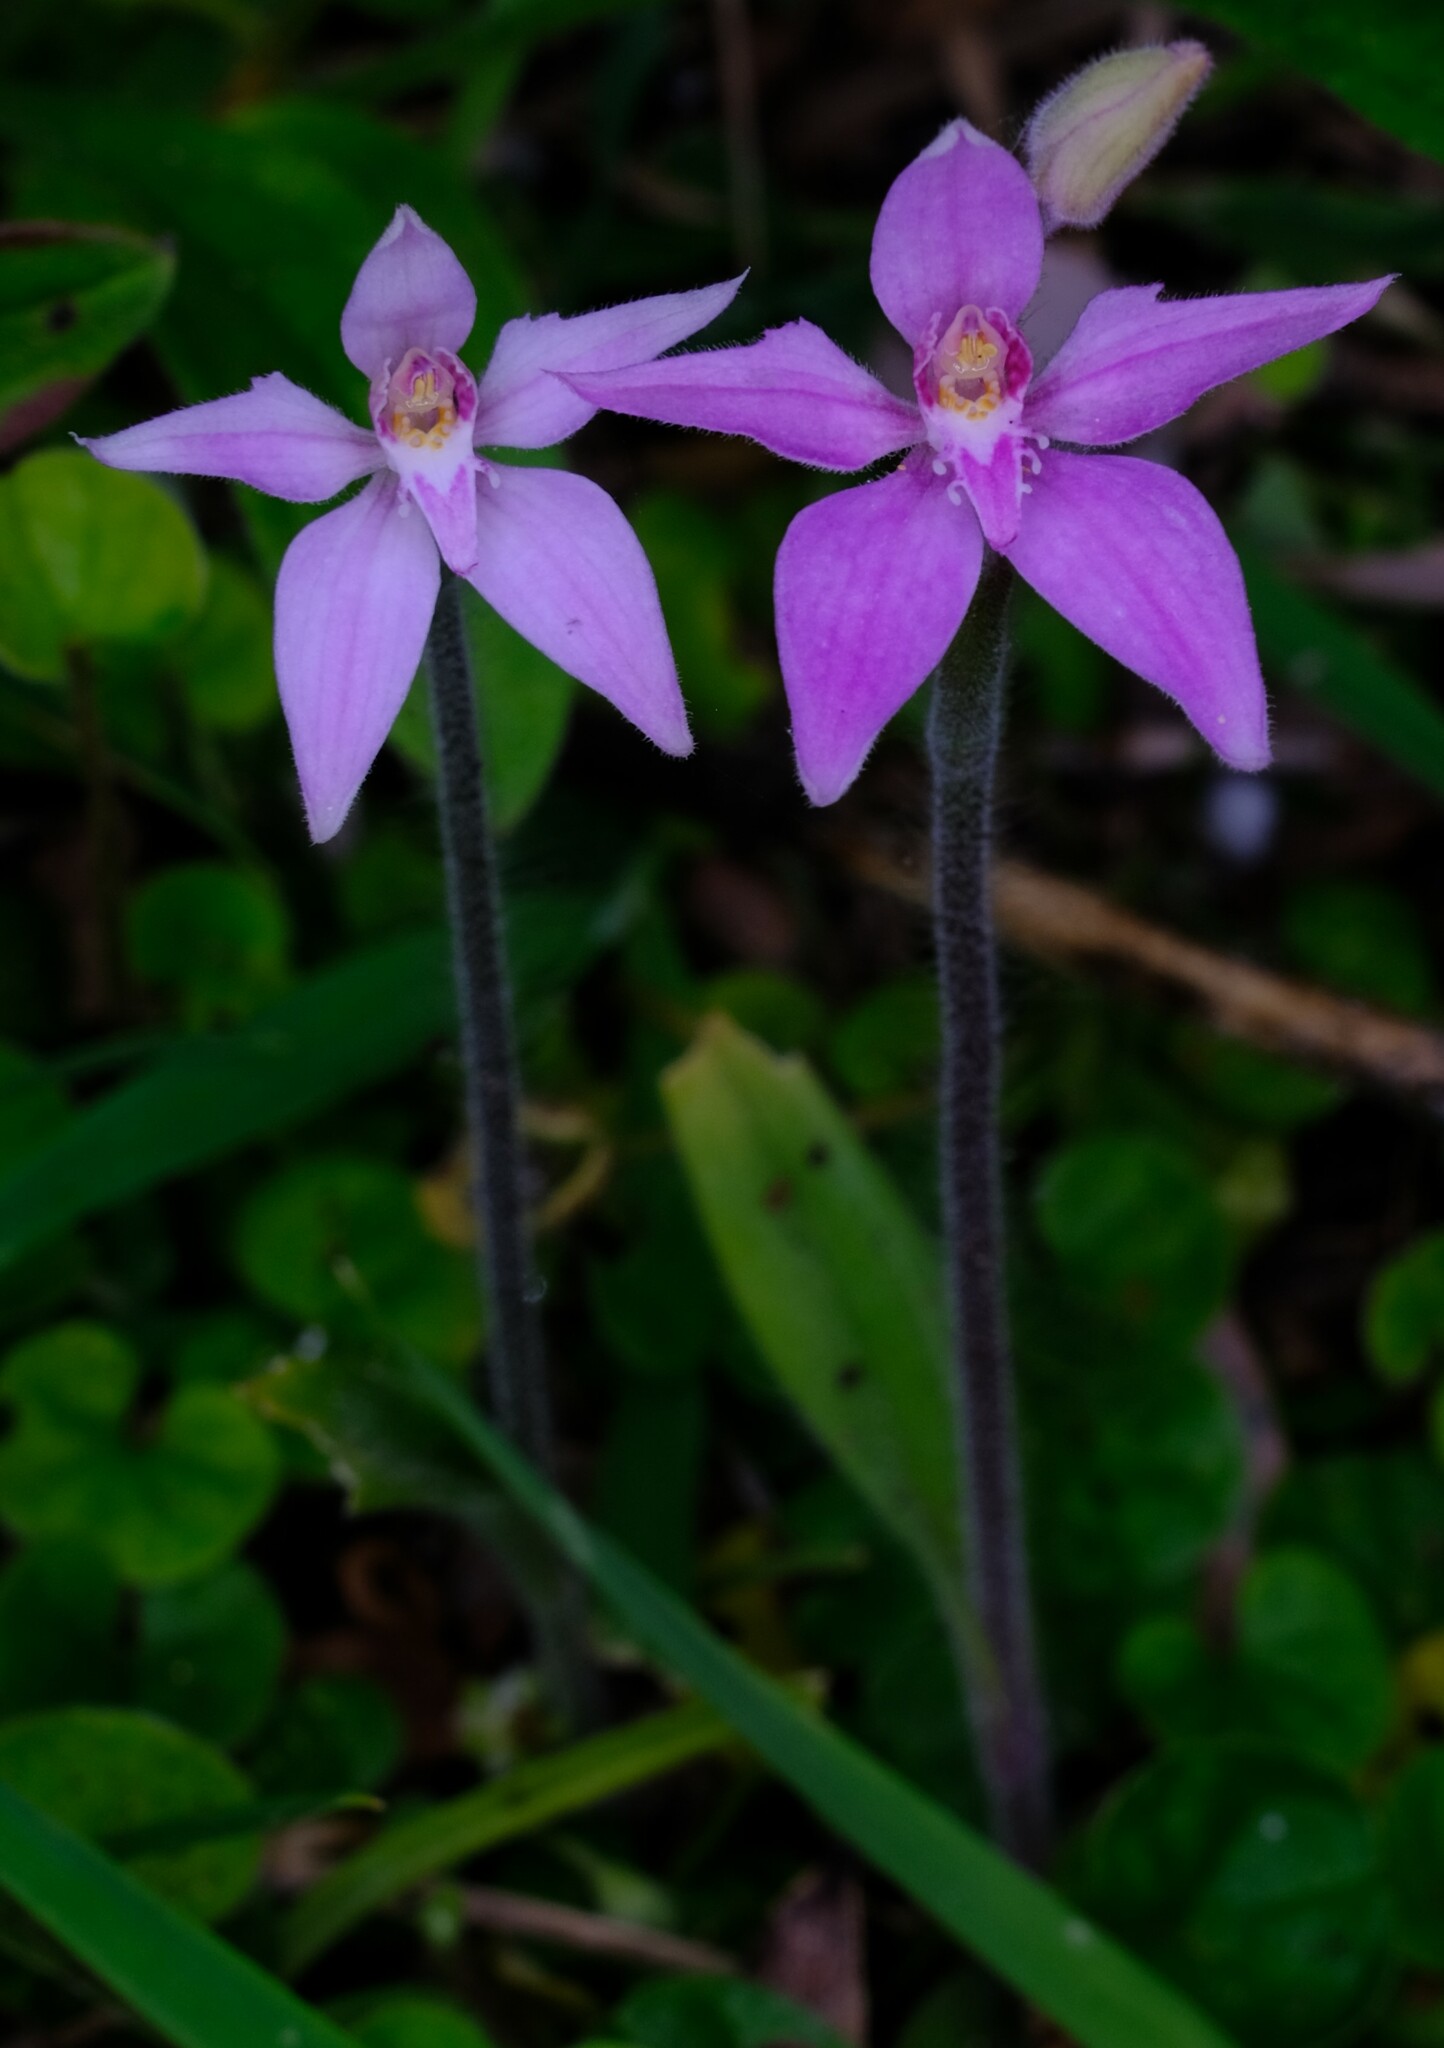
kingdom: Plantae
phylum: Tracheophyta
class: Liliopsida
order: Asparagales
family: Orchidaceae
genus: Caladenia
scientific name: Caladenia latifolia
